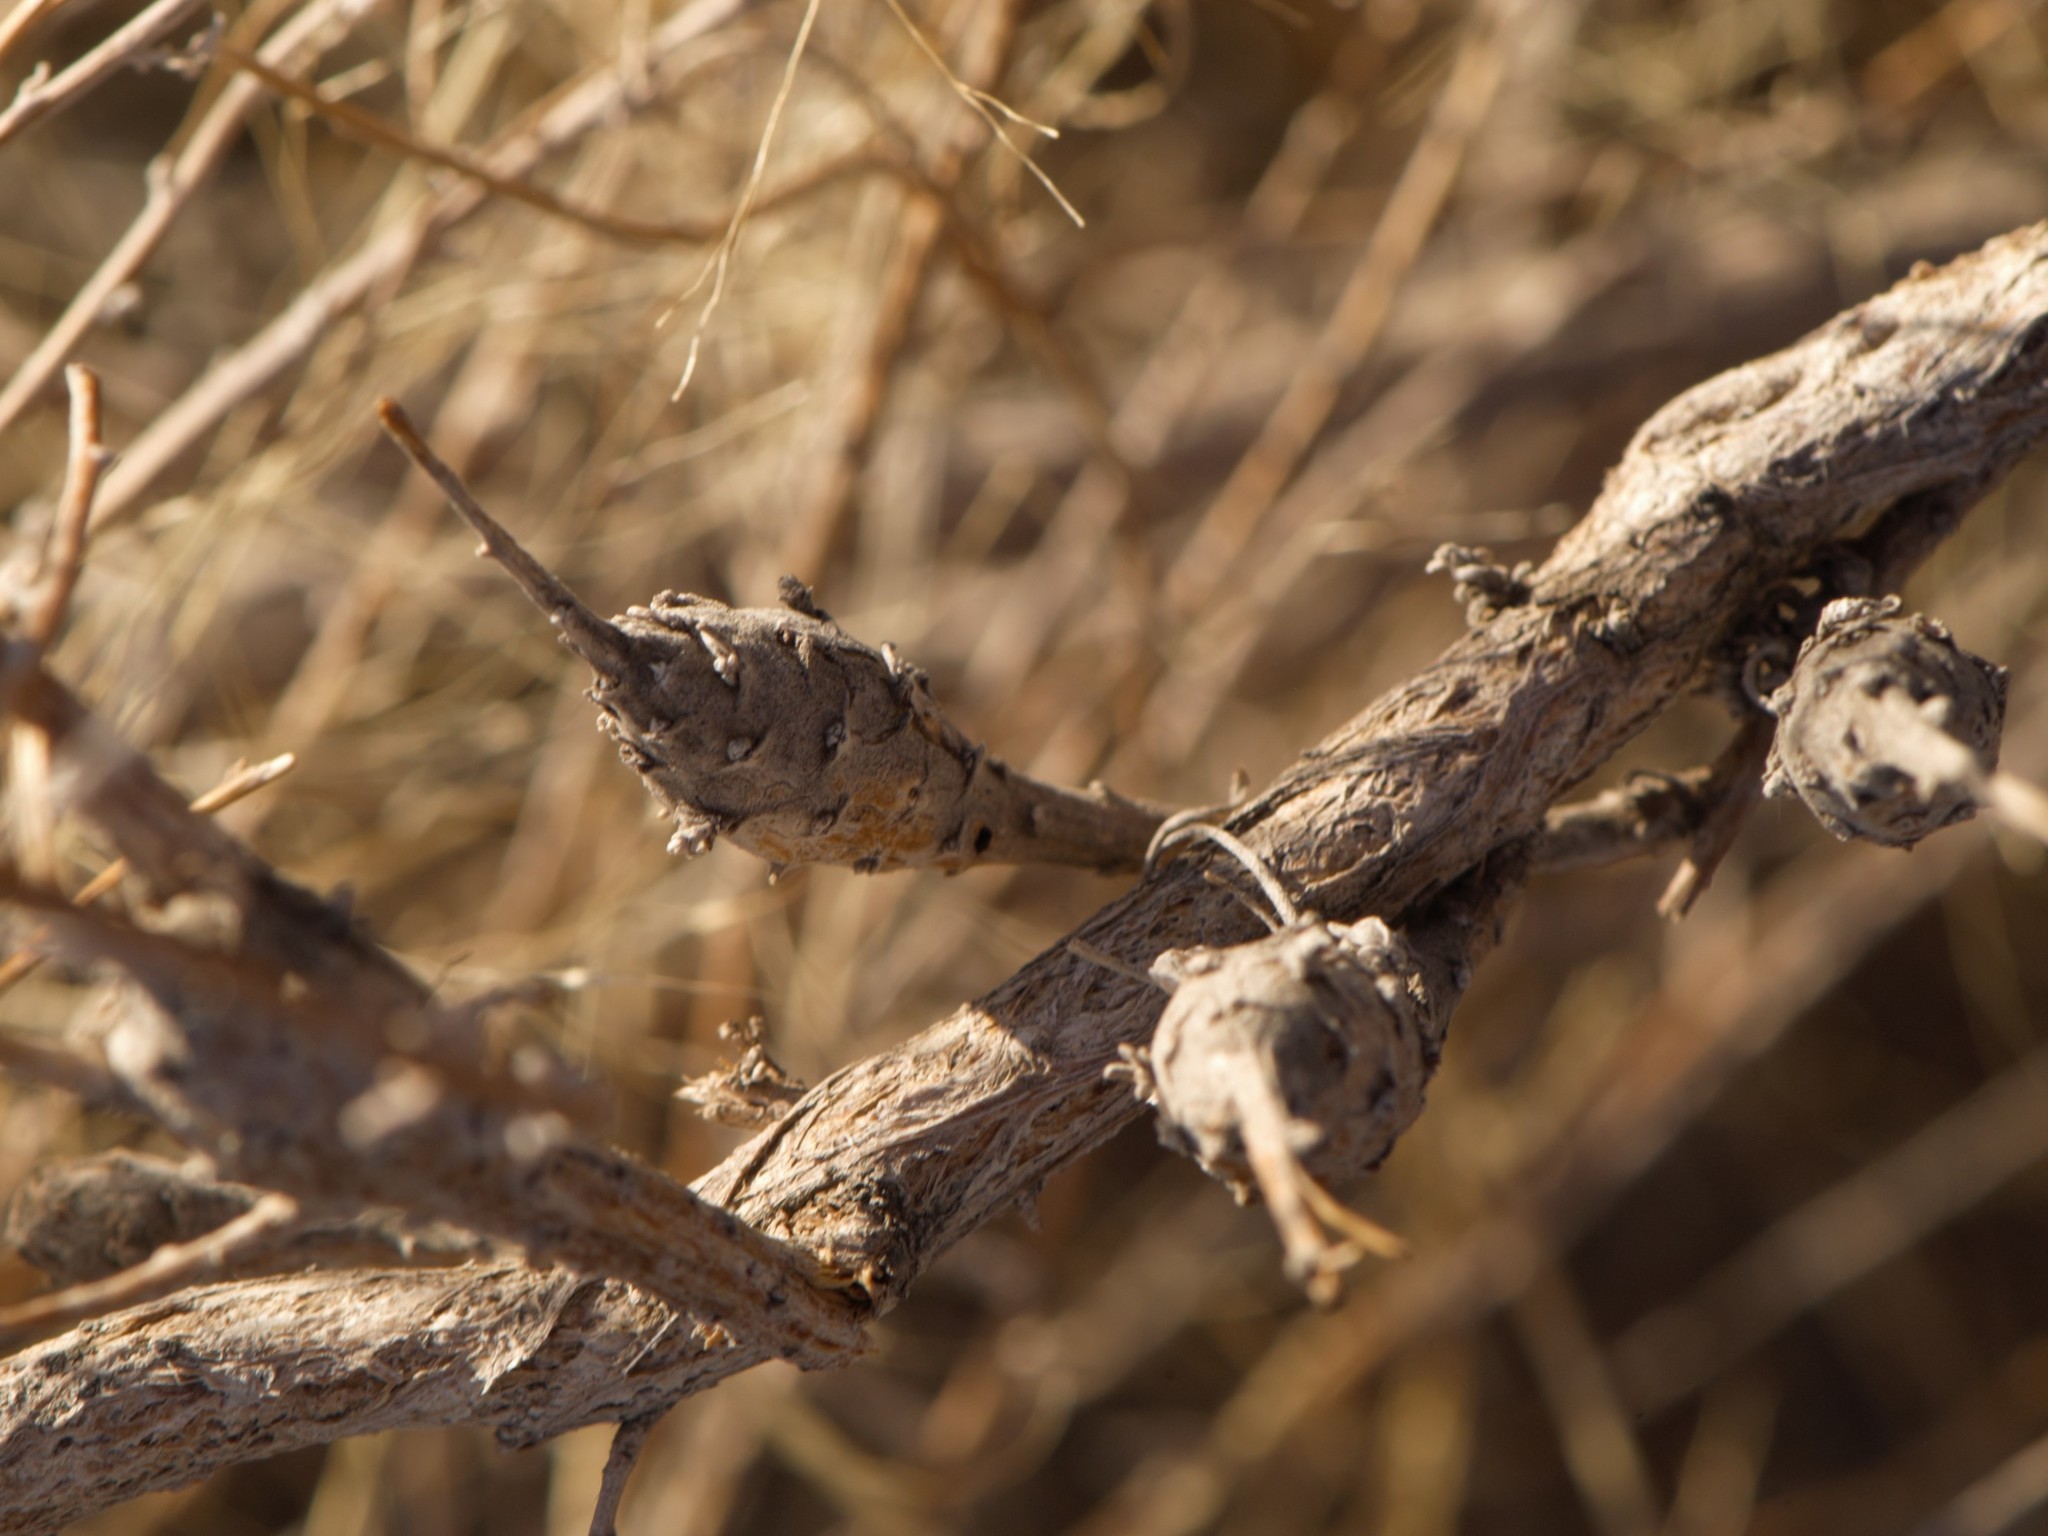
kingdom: Animalia
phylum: Arthropoda
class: Insecta
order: Diptera
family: Tephritidae
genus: Eutreta
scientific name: Eutreta diana
